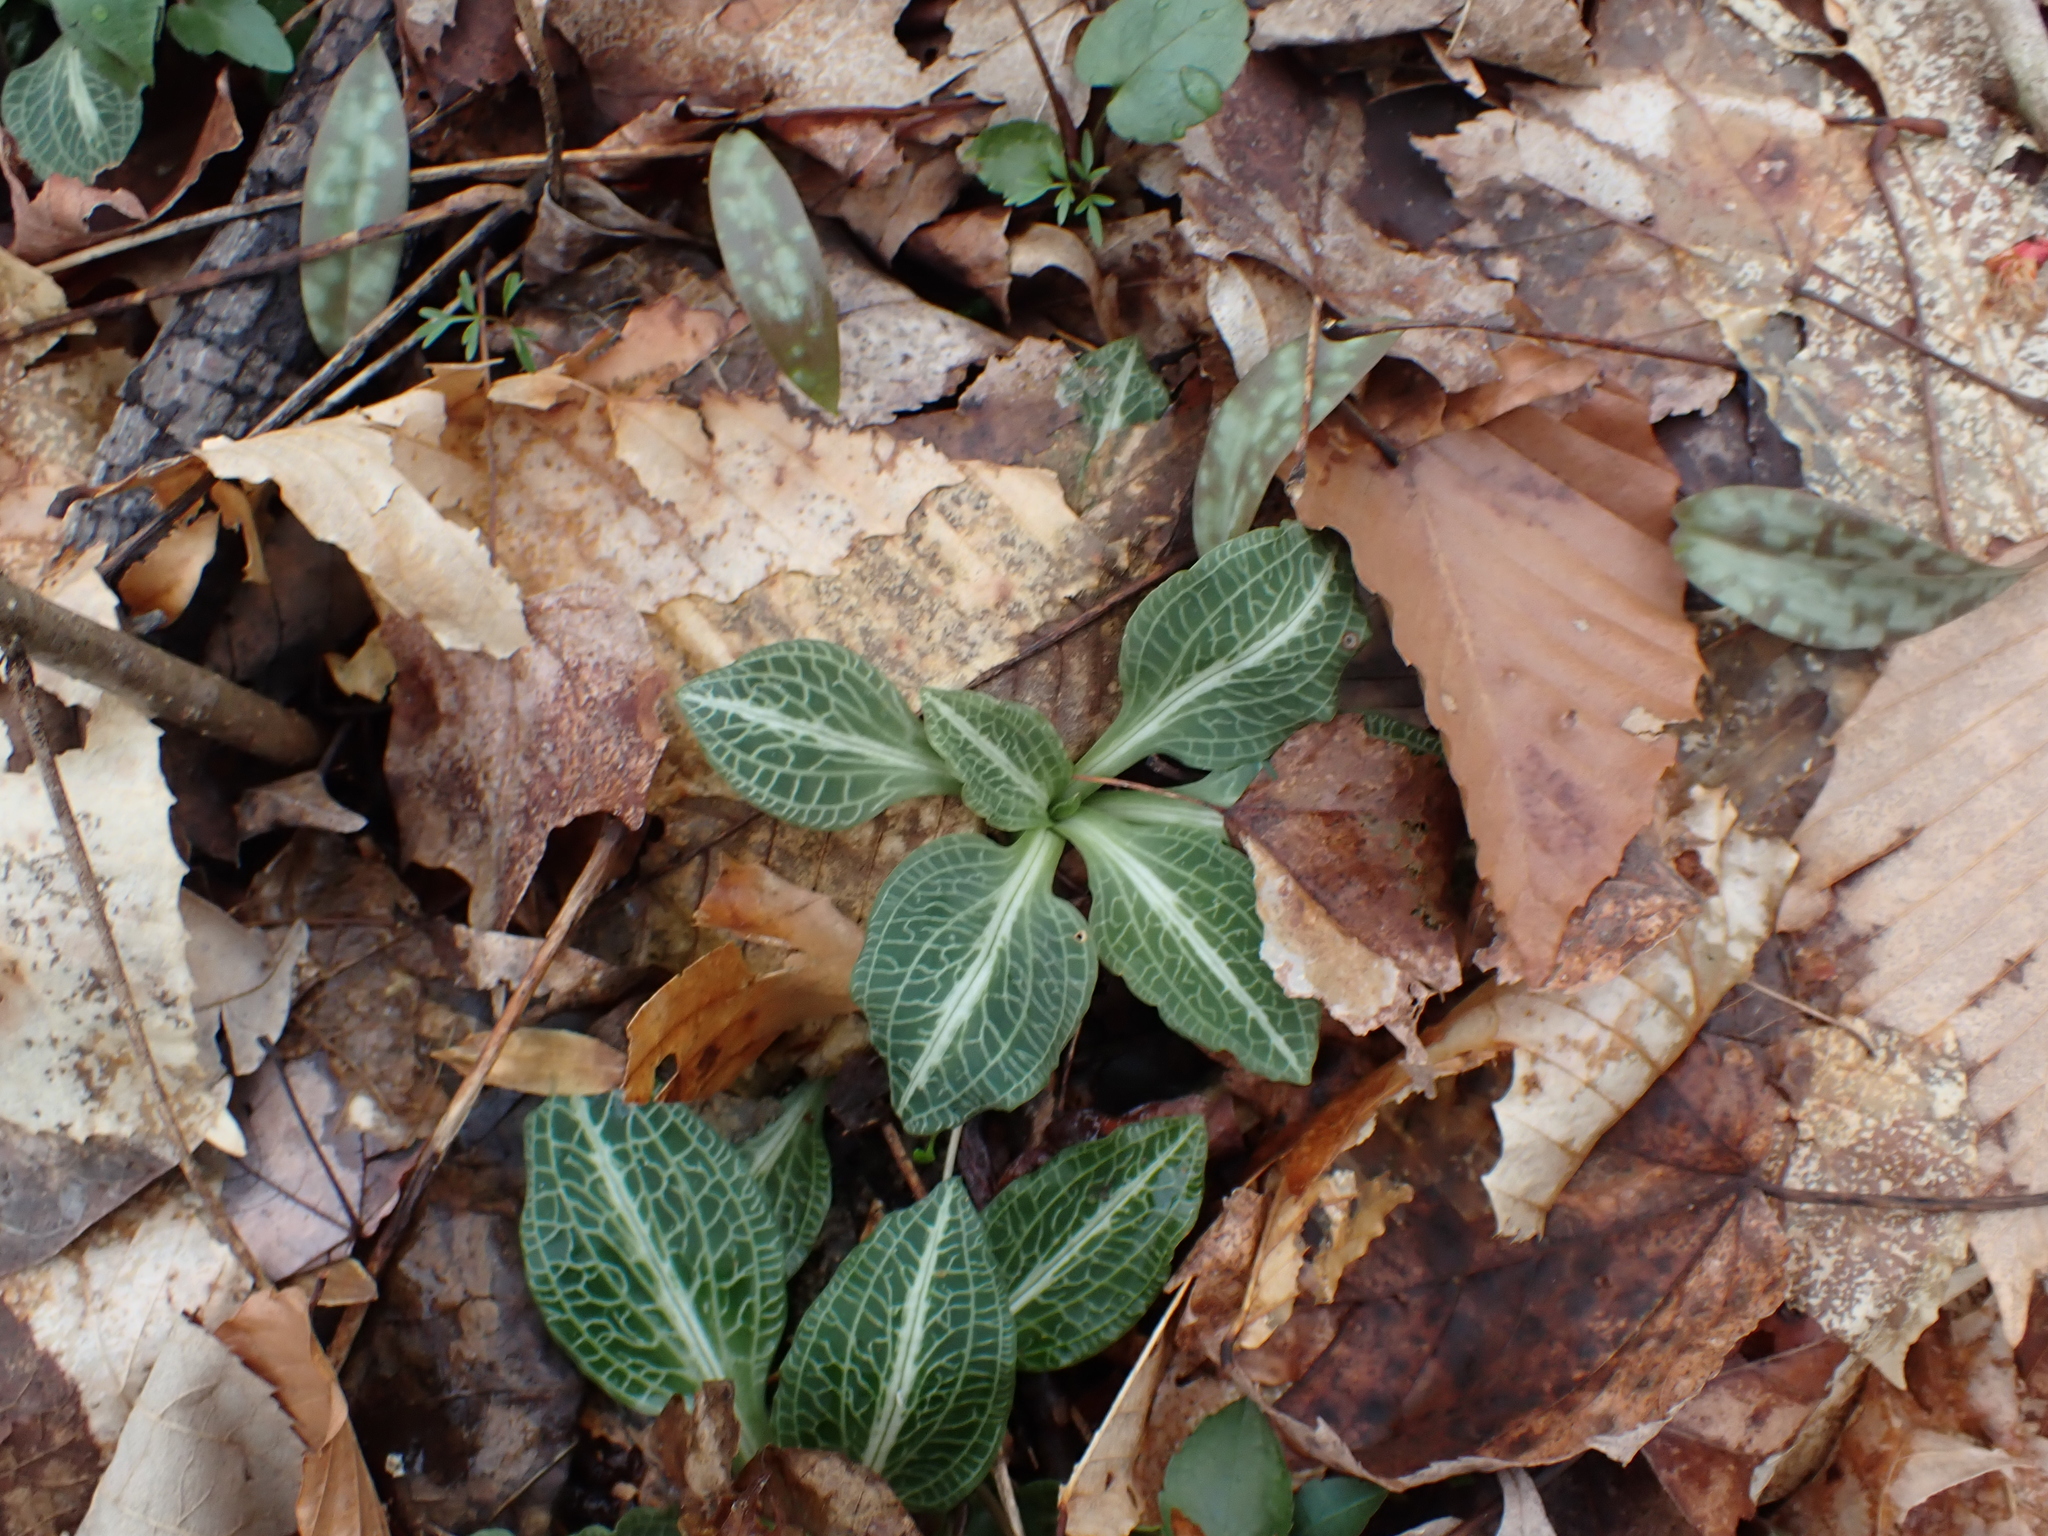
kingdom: Plantae
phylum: Tracheophyta
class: Liliopsida
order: Asparagales
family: Orchidaceae
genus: Goodyera
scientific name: Goodyera pubescens
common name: Downy rattlesnake-plantain
